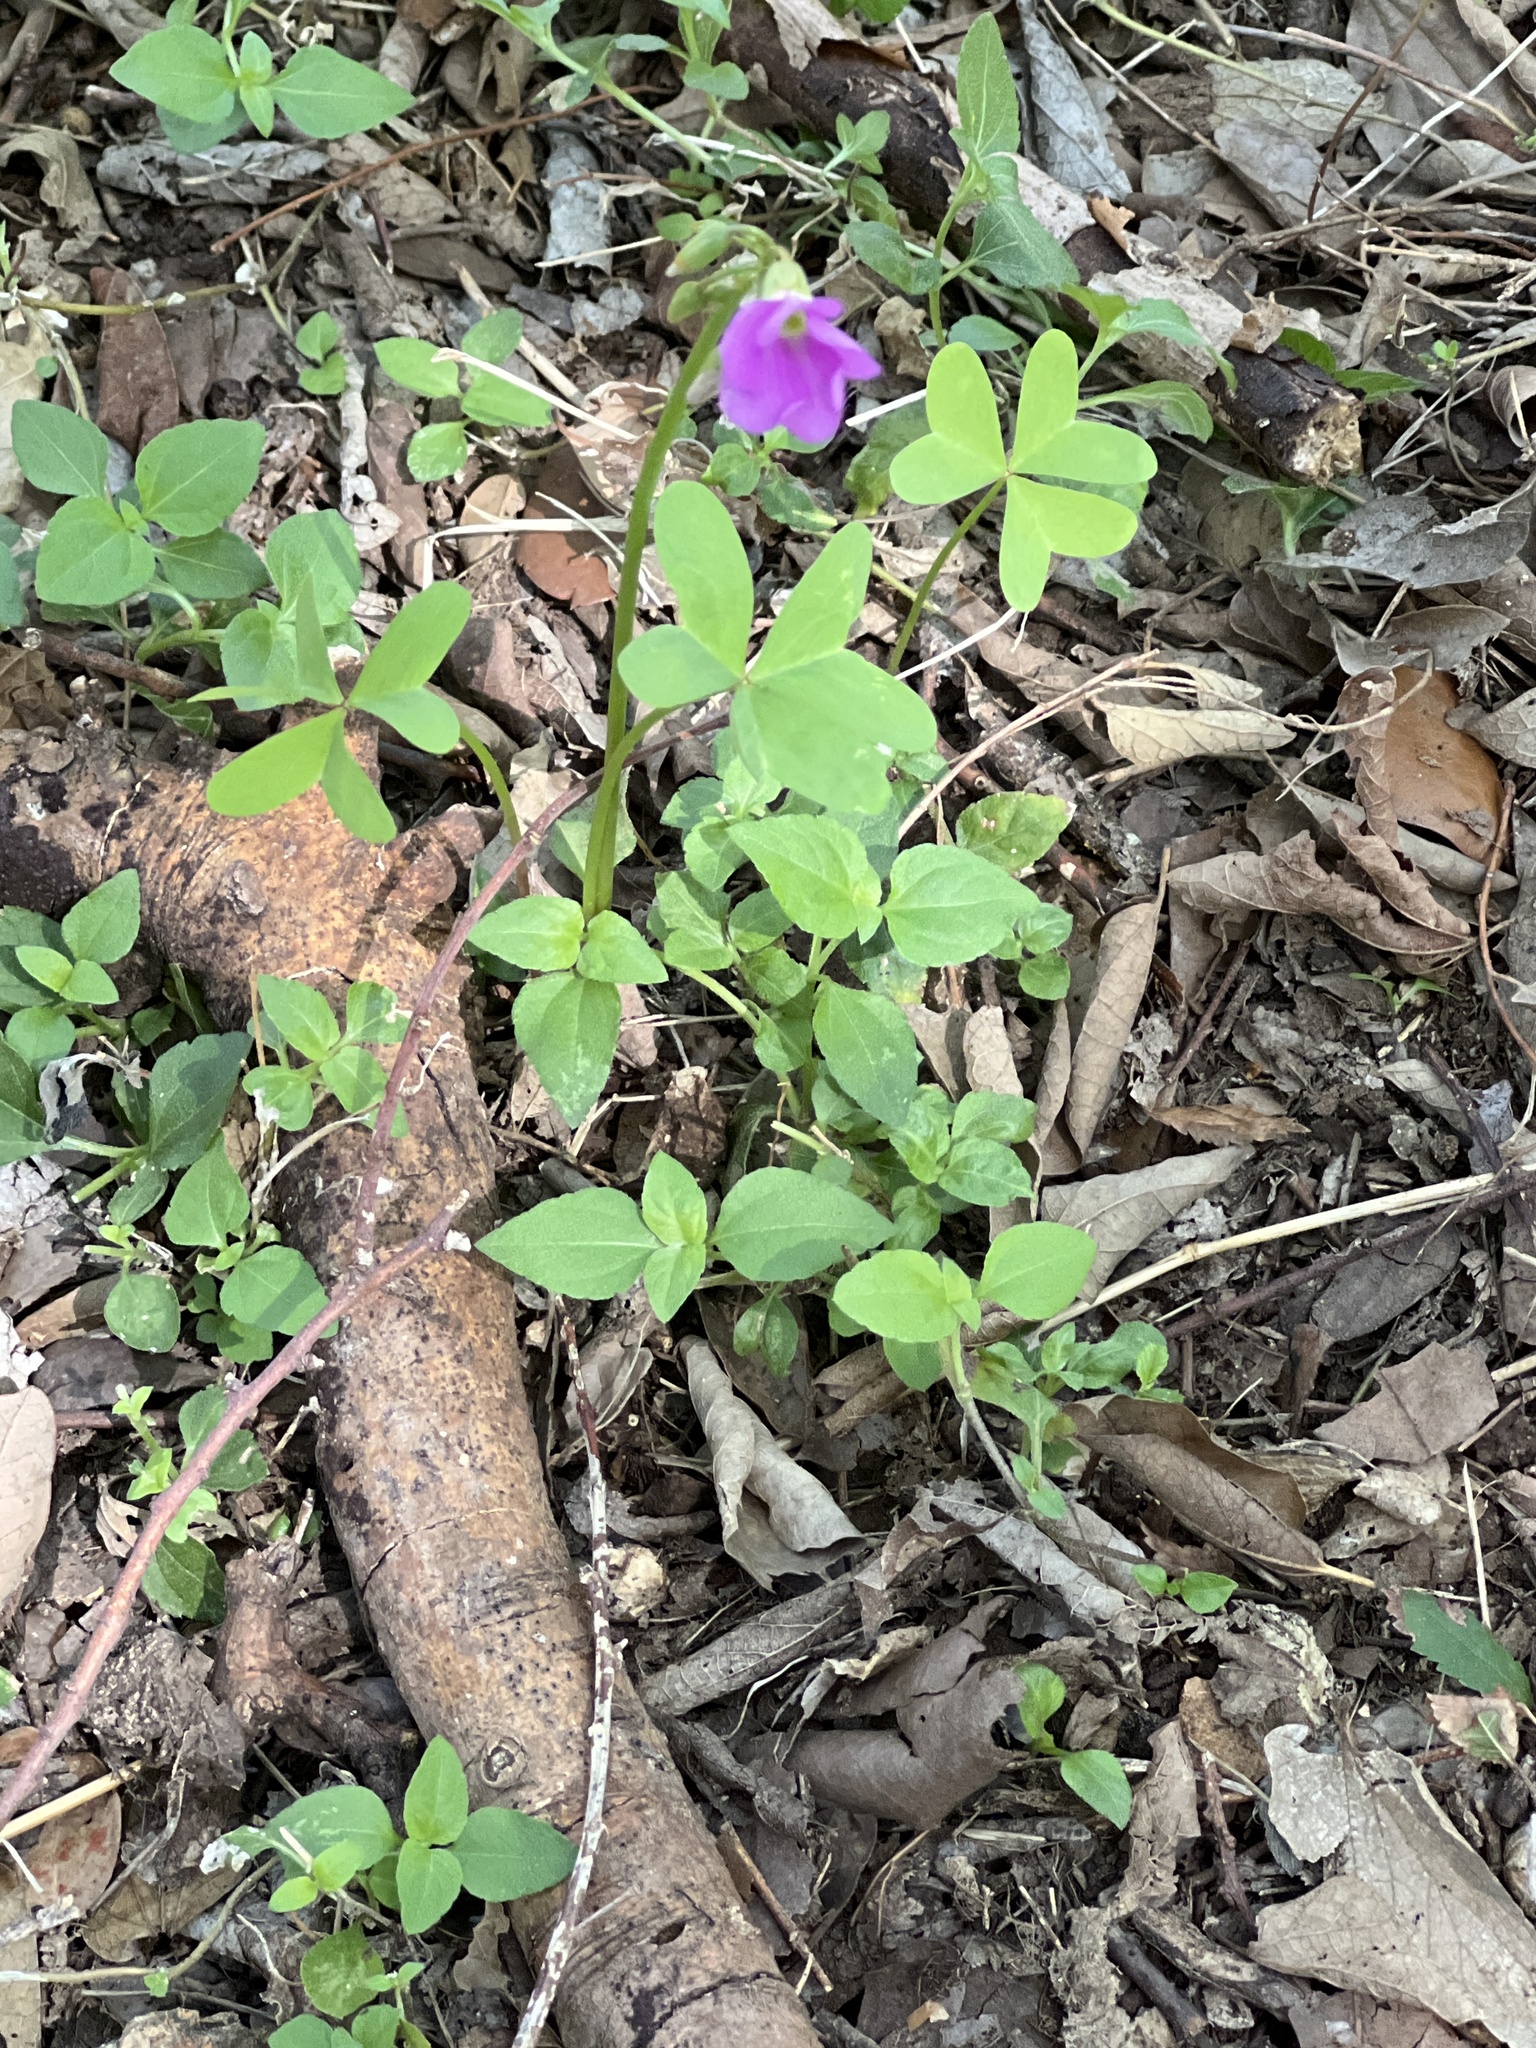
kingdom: Plantae
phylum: Tracheophyta
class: Magnoliopsida
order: Oxalidales
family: Oxalidaceae
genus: Oxalis
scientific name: Oxalis drummondii
